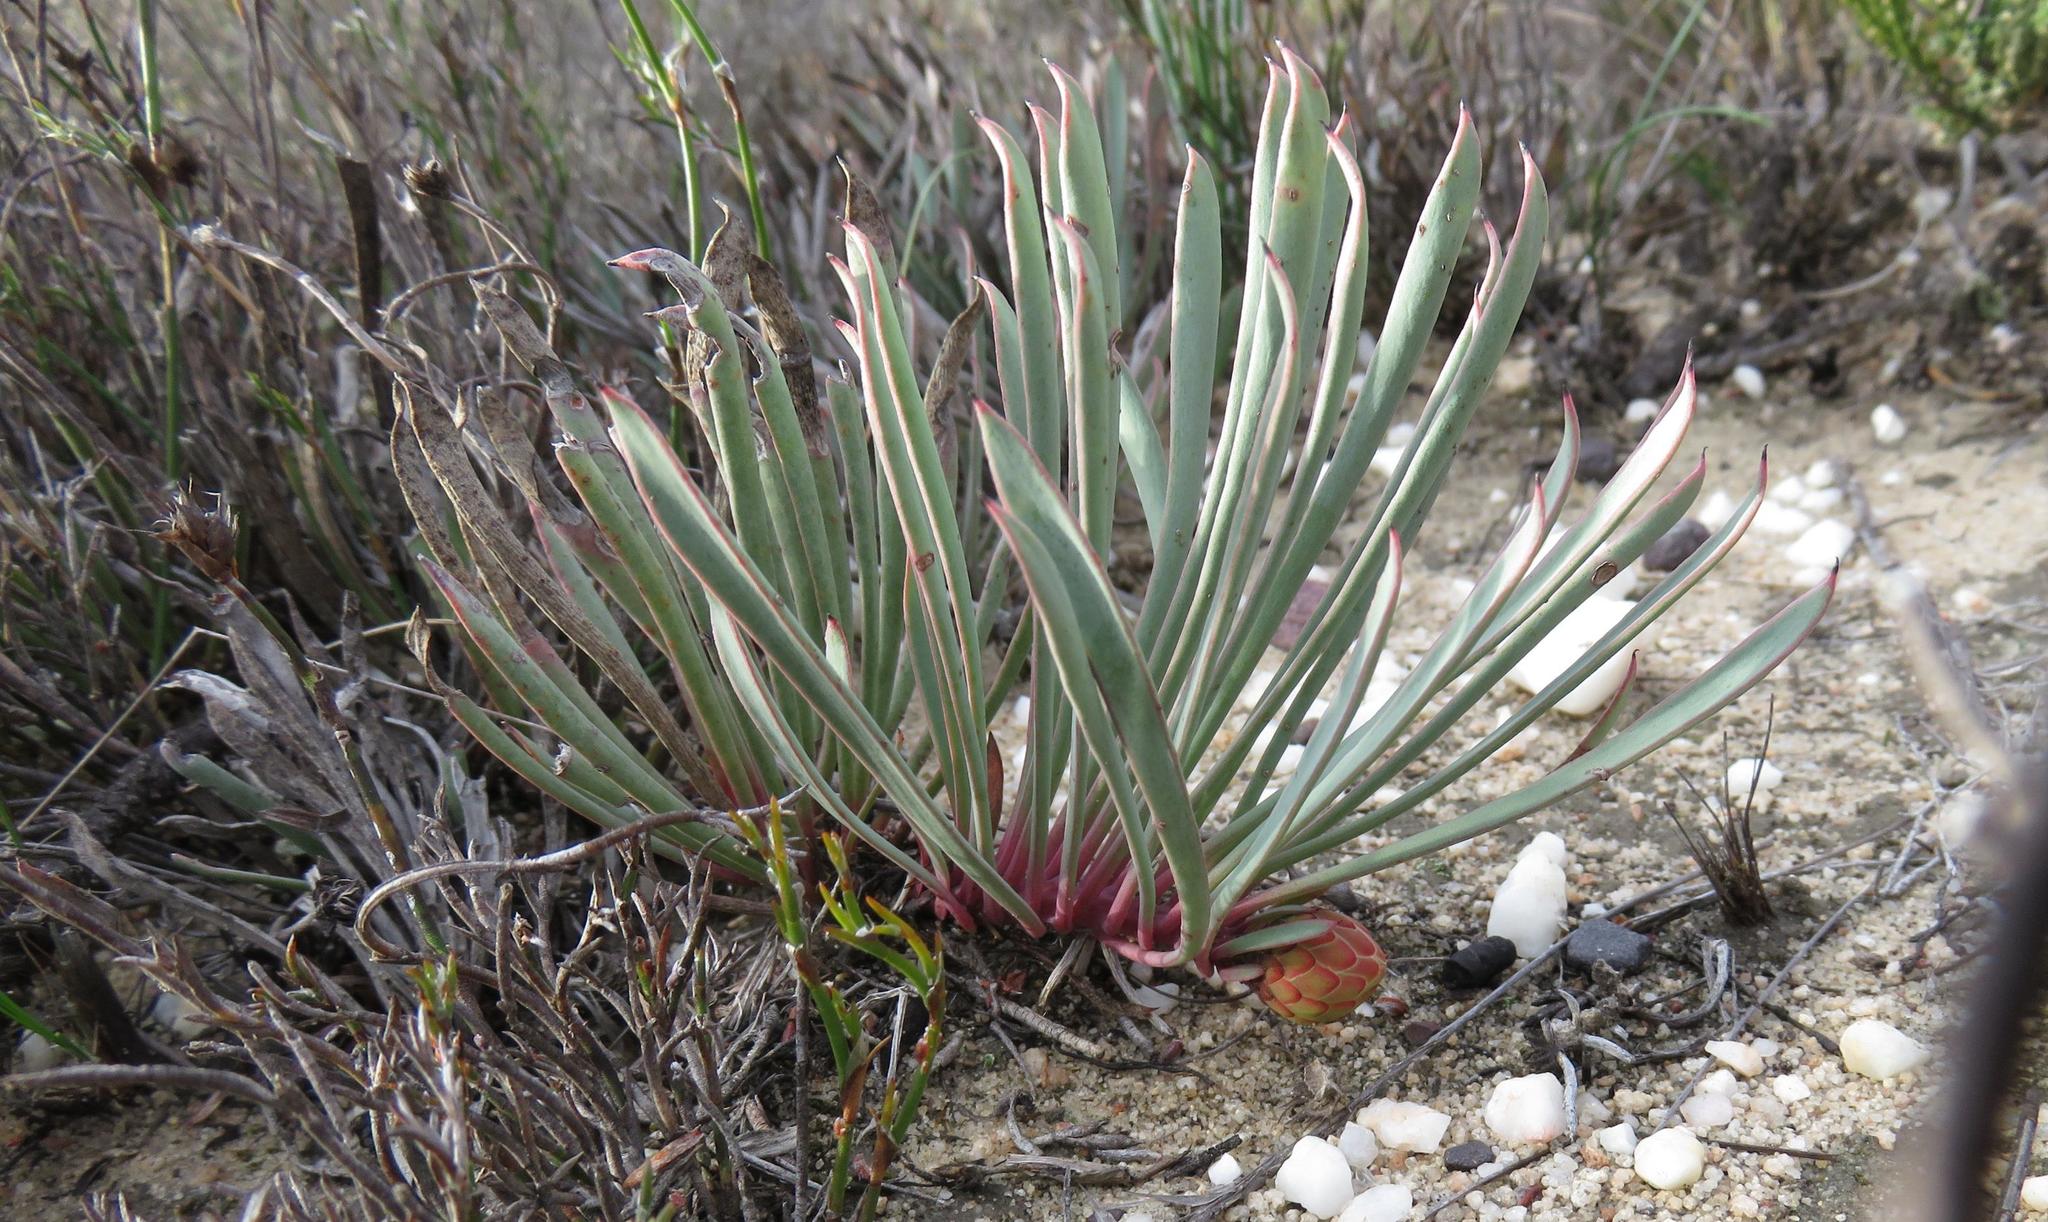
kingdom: Plantae
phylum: Tracheophyta
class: Magnoliopsida
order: Proteales
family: Proteaceae
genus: Protea
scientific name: Protea laevis
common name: Smooth-leaf sugarbush
